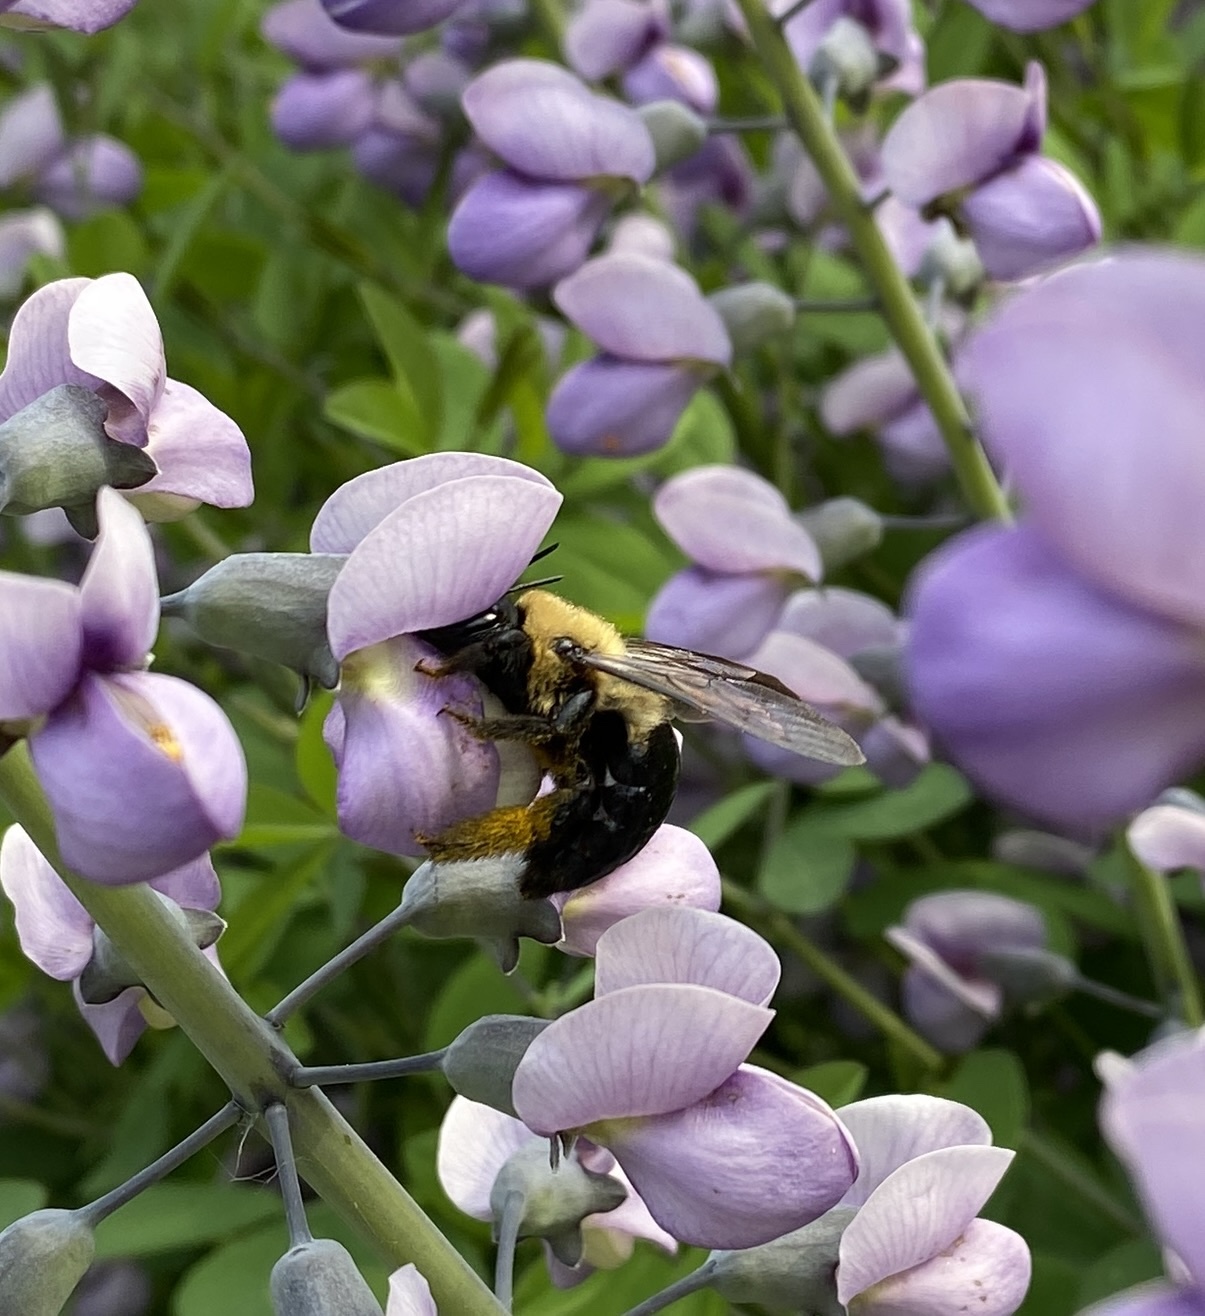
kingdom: Animalia
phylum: Arthropoda
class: Insecta
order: Hymenoptera
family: Apidae
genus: Xylocopa
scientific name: Xylocopa virginica
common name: Carpenter bee
